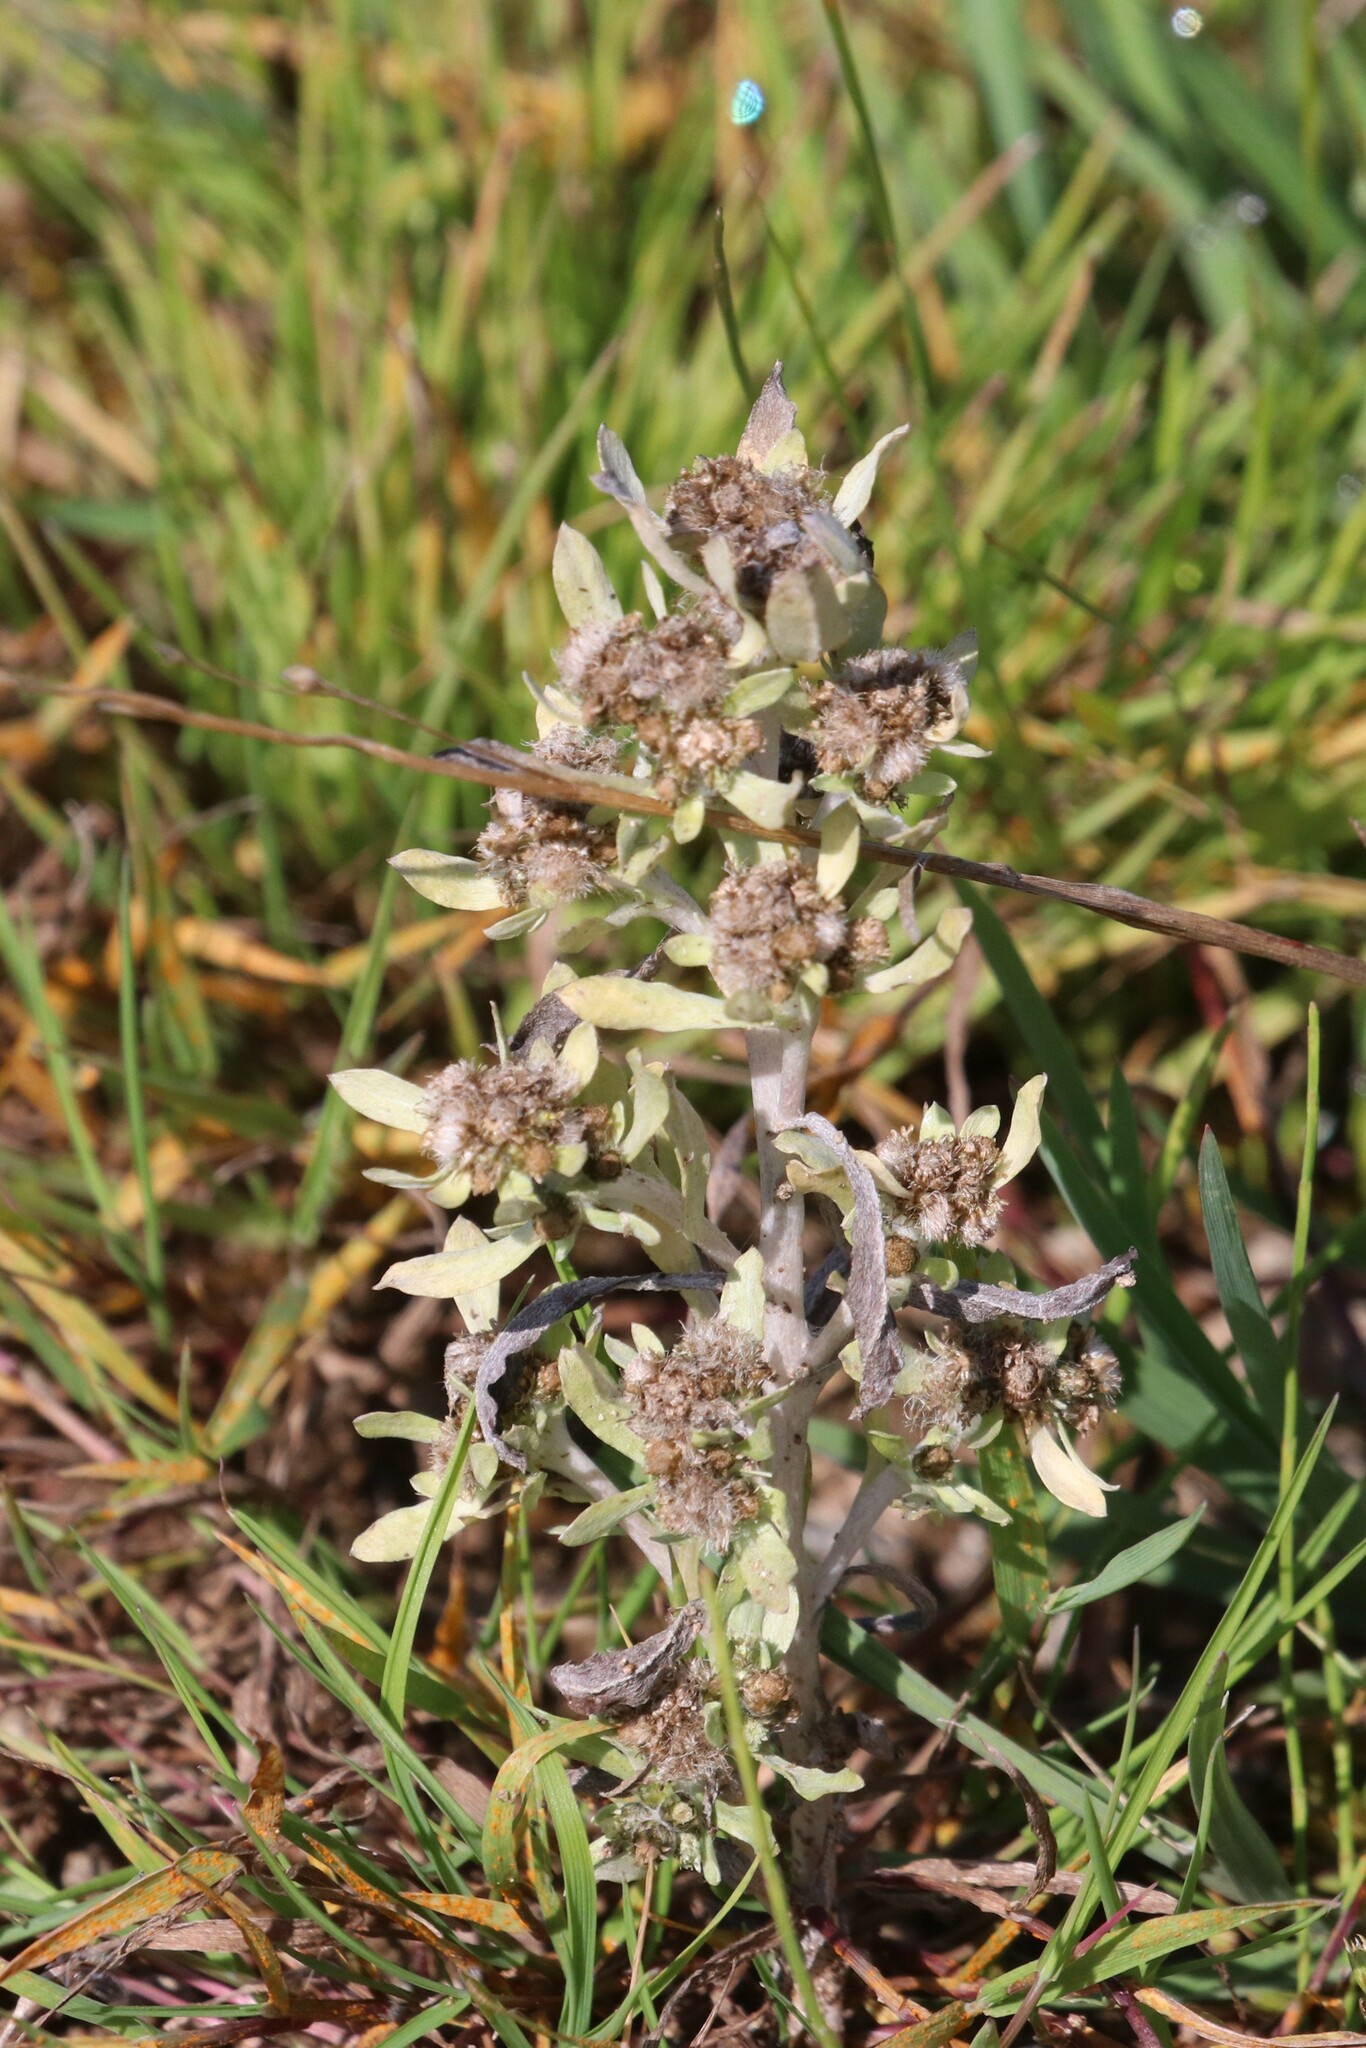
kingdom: Plantae
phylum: Tracheophyta
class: Magnoliopsida
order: Asterales
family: Asteraceae
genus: Gnaphalium
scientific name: Gnaphalium uliginosum
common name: Marsh cudweed
